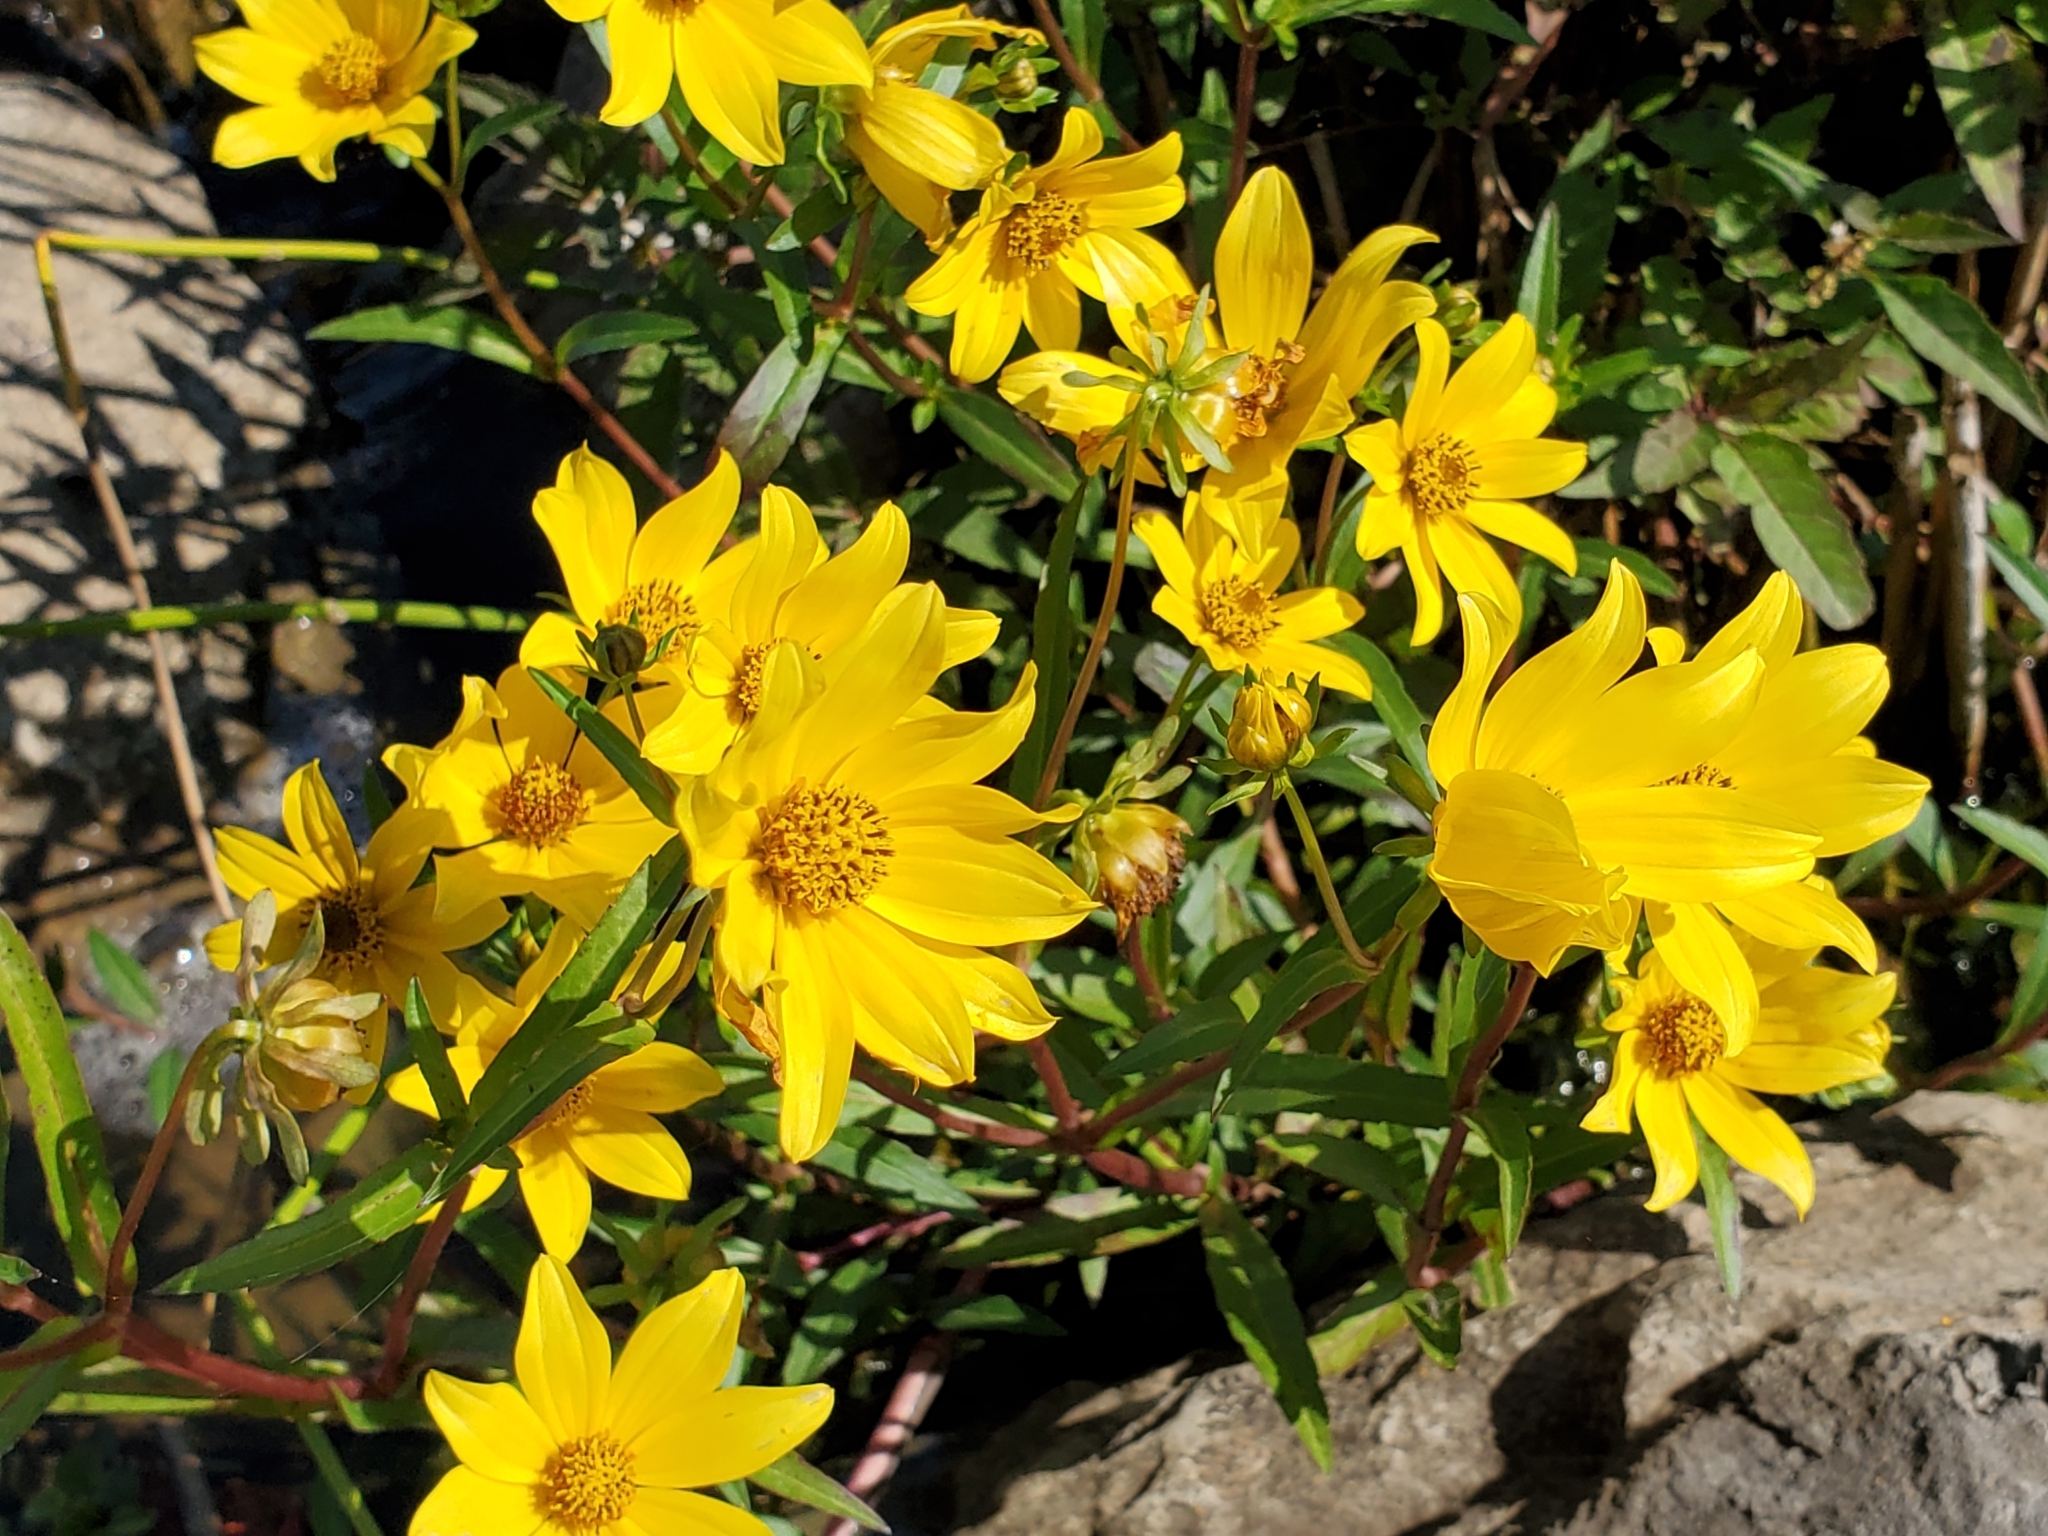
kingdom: Plantae
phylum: Tracheophyta
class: Magnoliopsida
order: Asterales
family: Asteraceae
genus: Bidens
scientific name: Bidens laevis
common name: Larger bur-marigold
